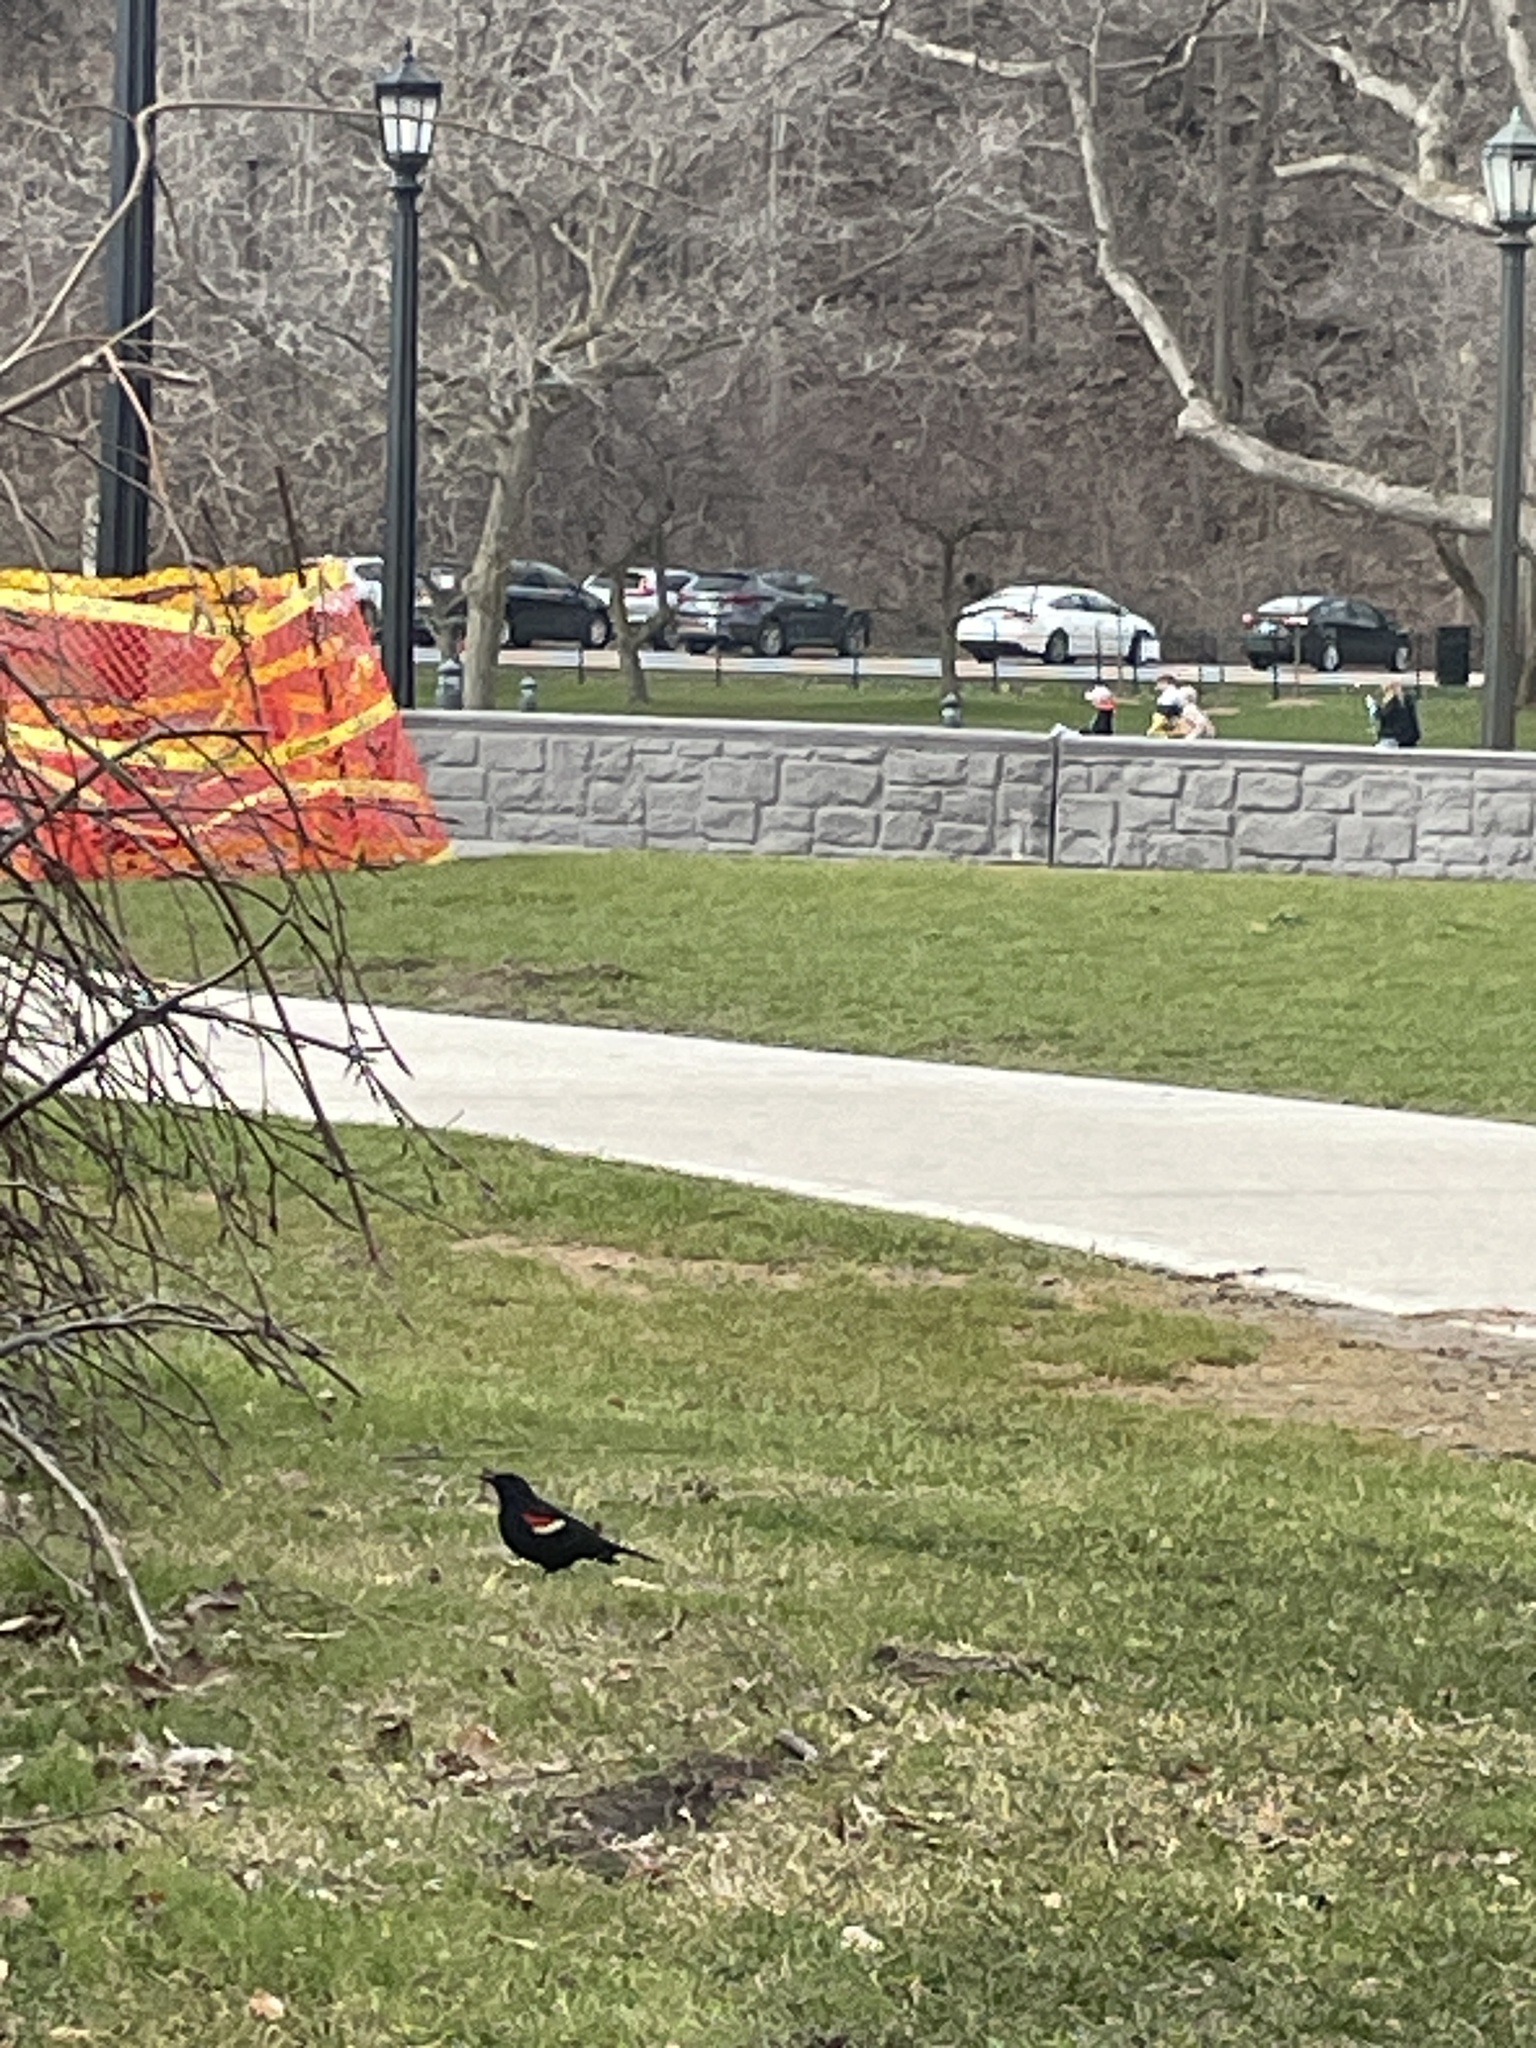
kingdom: Animalia
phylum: Chordata
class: Aves
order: Passeriformes
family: Icteridae
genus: Agelaius
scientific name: Agelaius phoeniceus
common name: Red-winged blackbird
